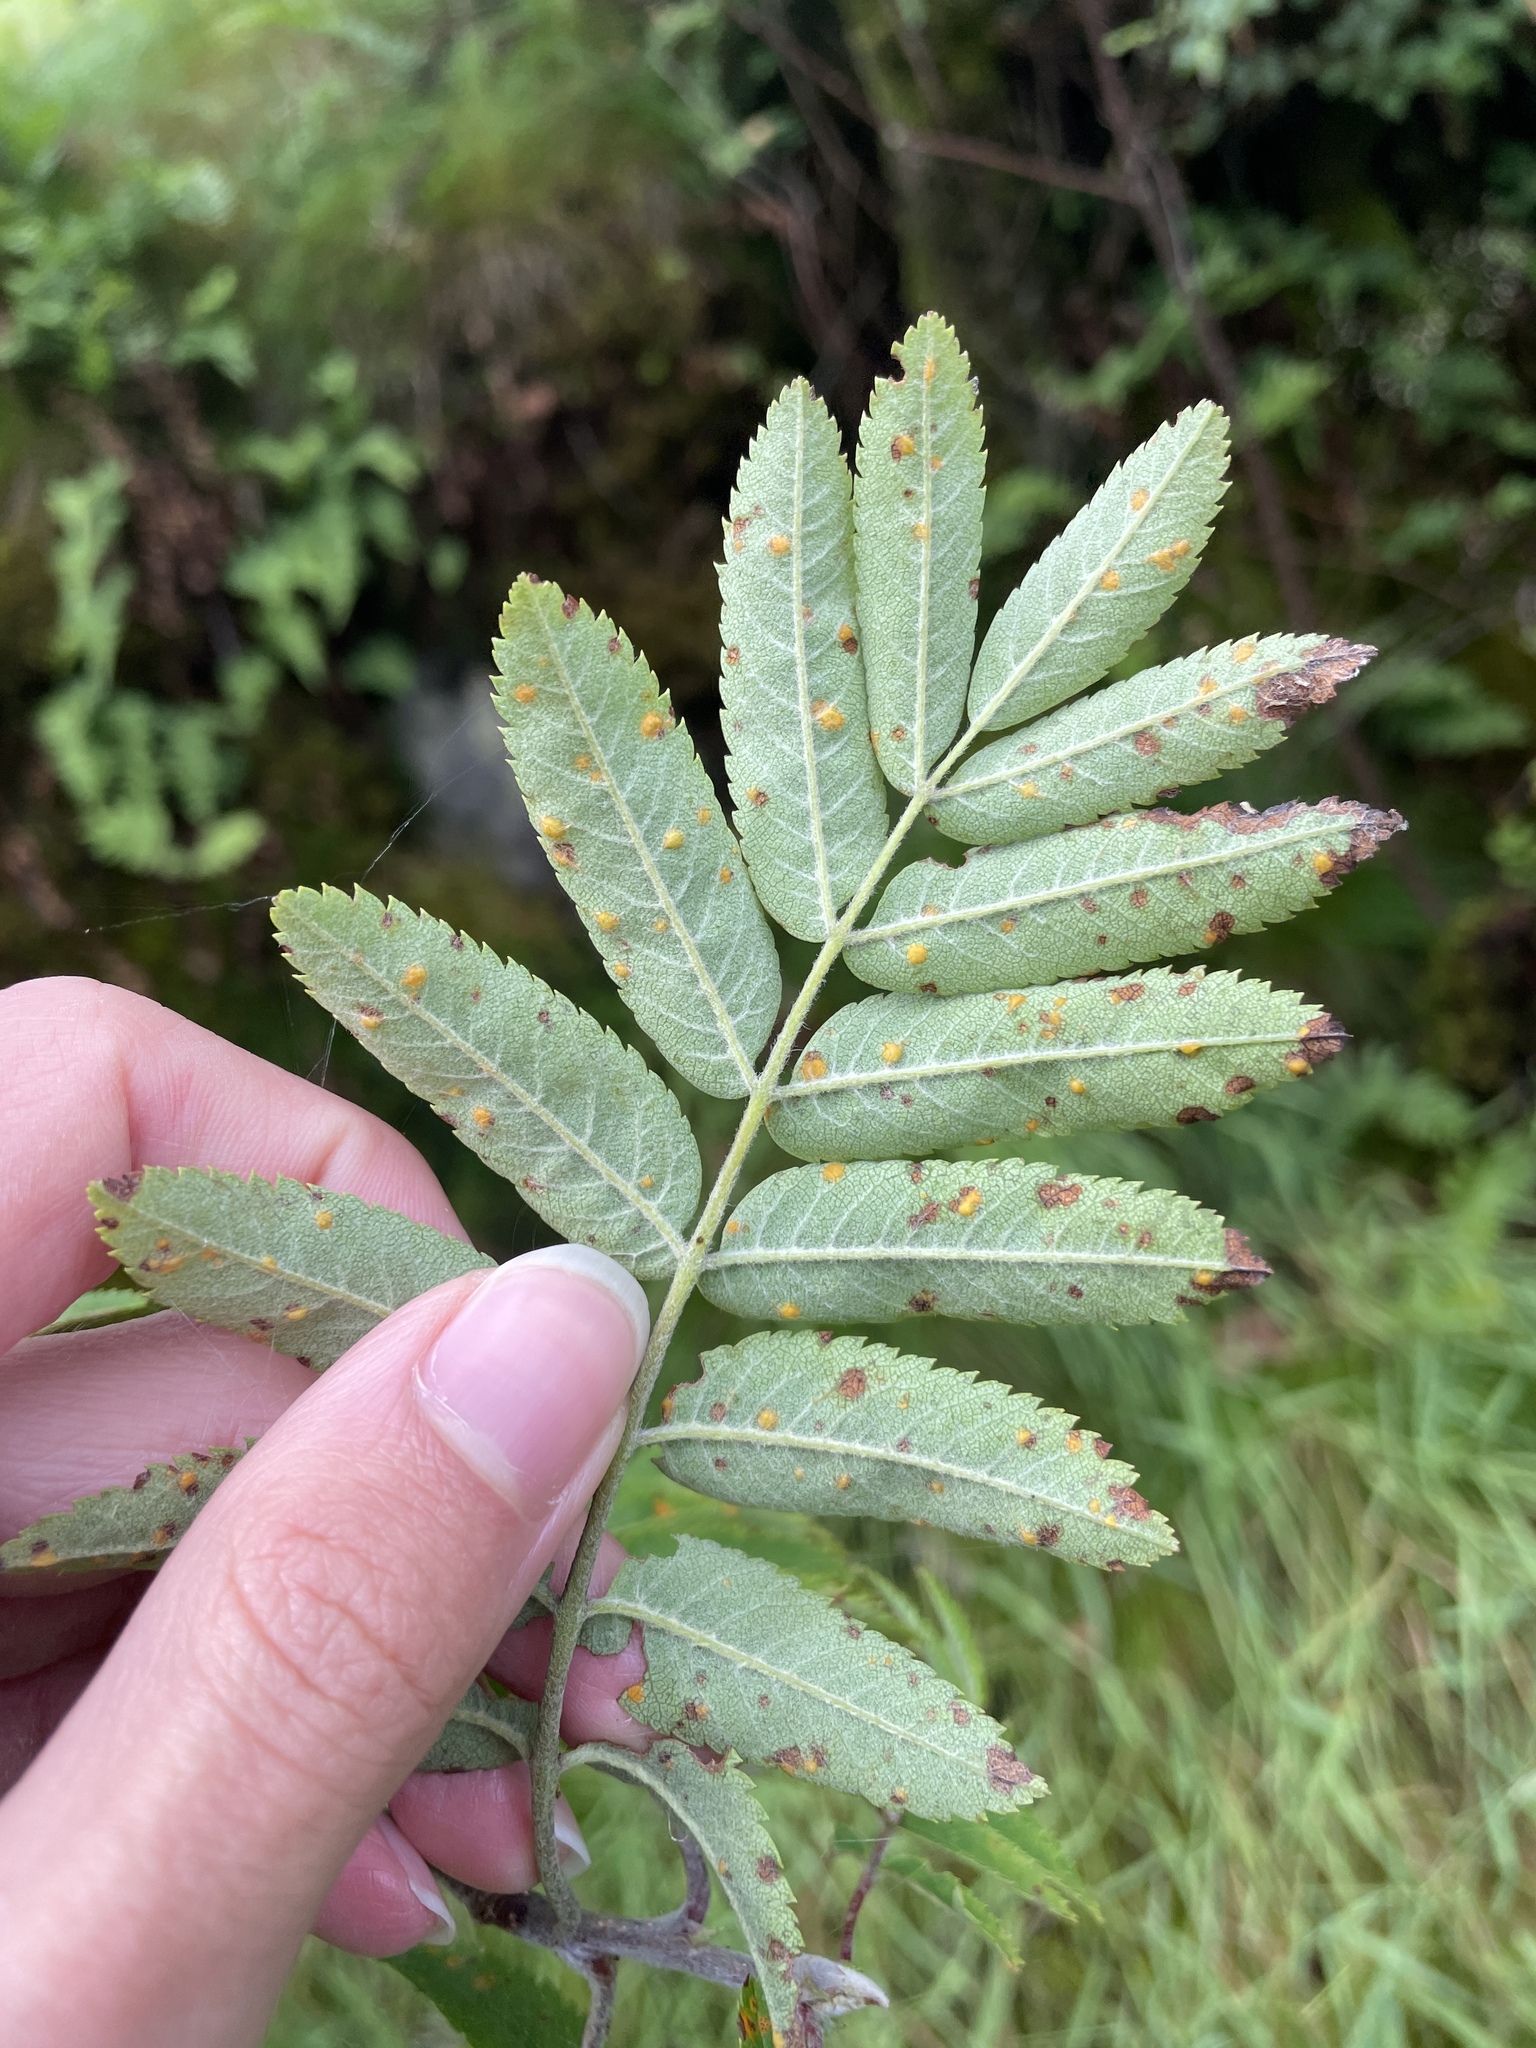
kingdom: Plantae
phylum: Tracheophyta
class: Magnoliopsida
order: Rosales
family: Rosaceae
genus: Sorbus
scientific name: Sorbus aucuparia
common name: Rowan
